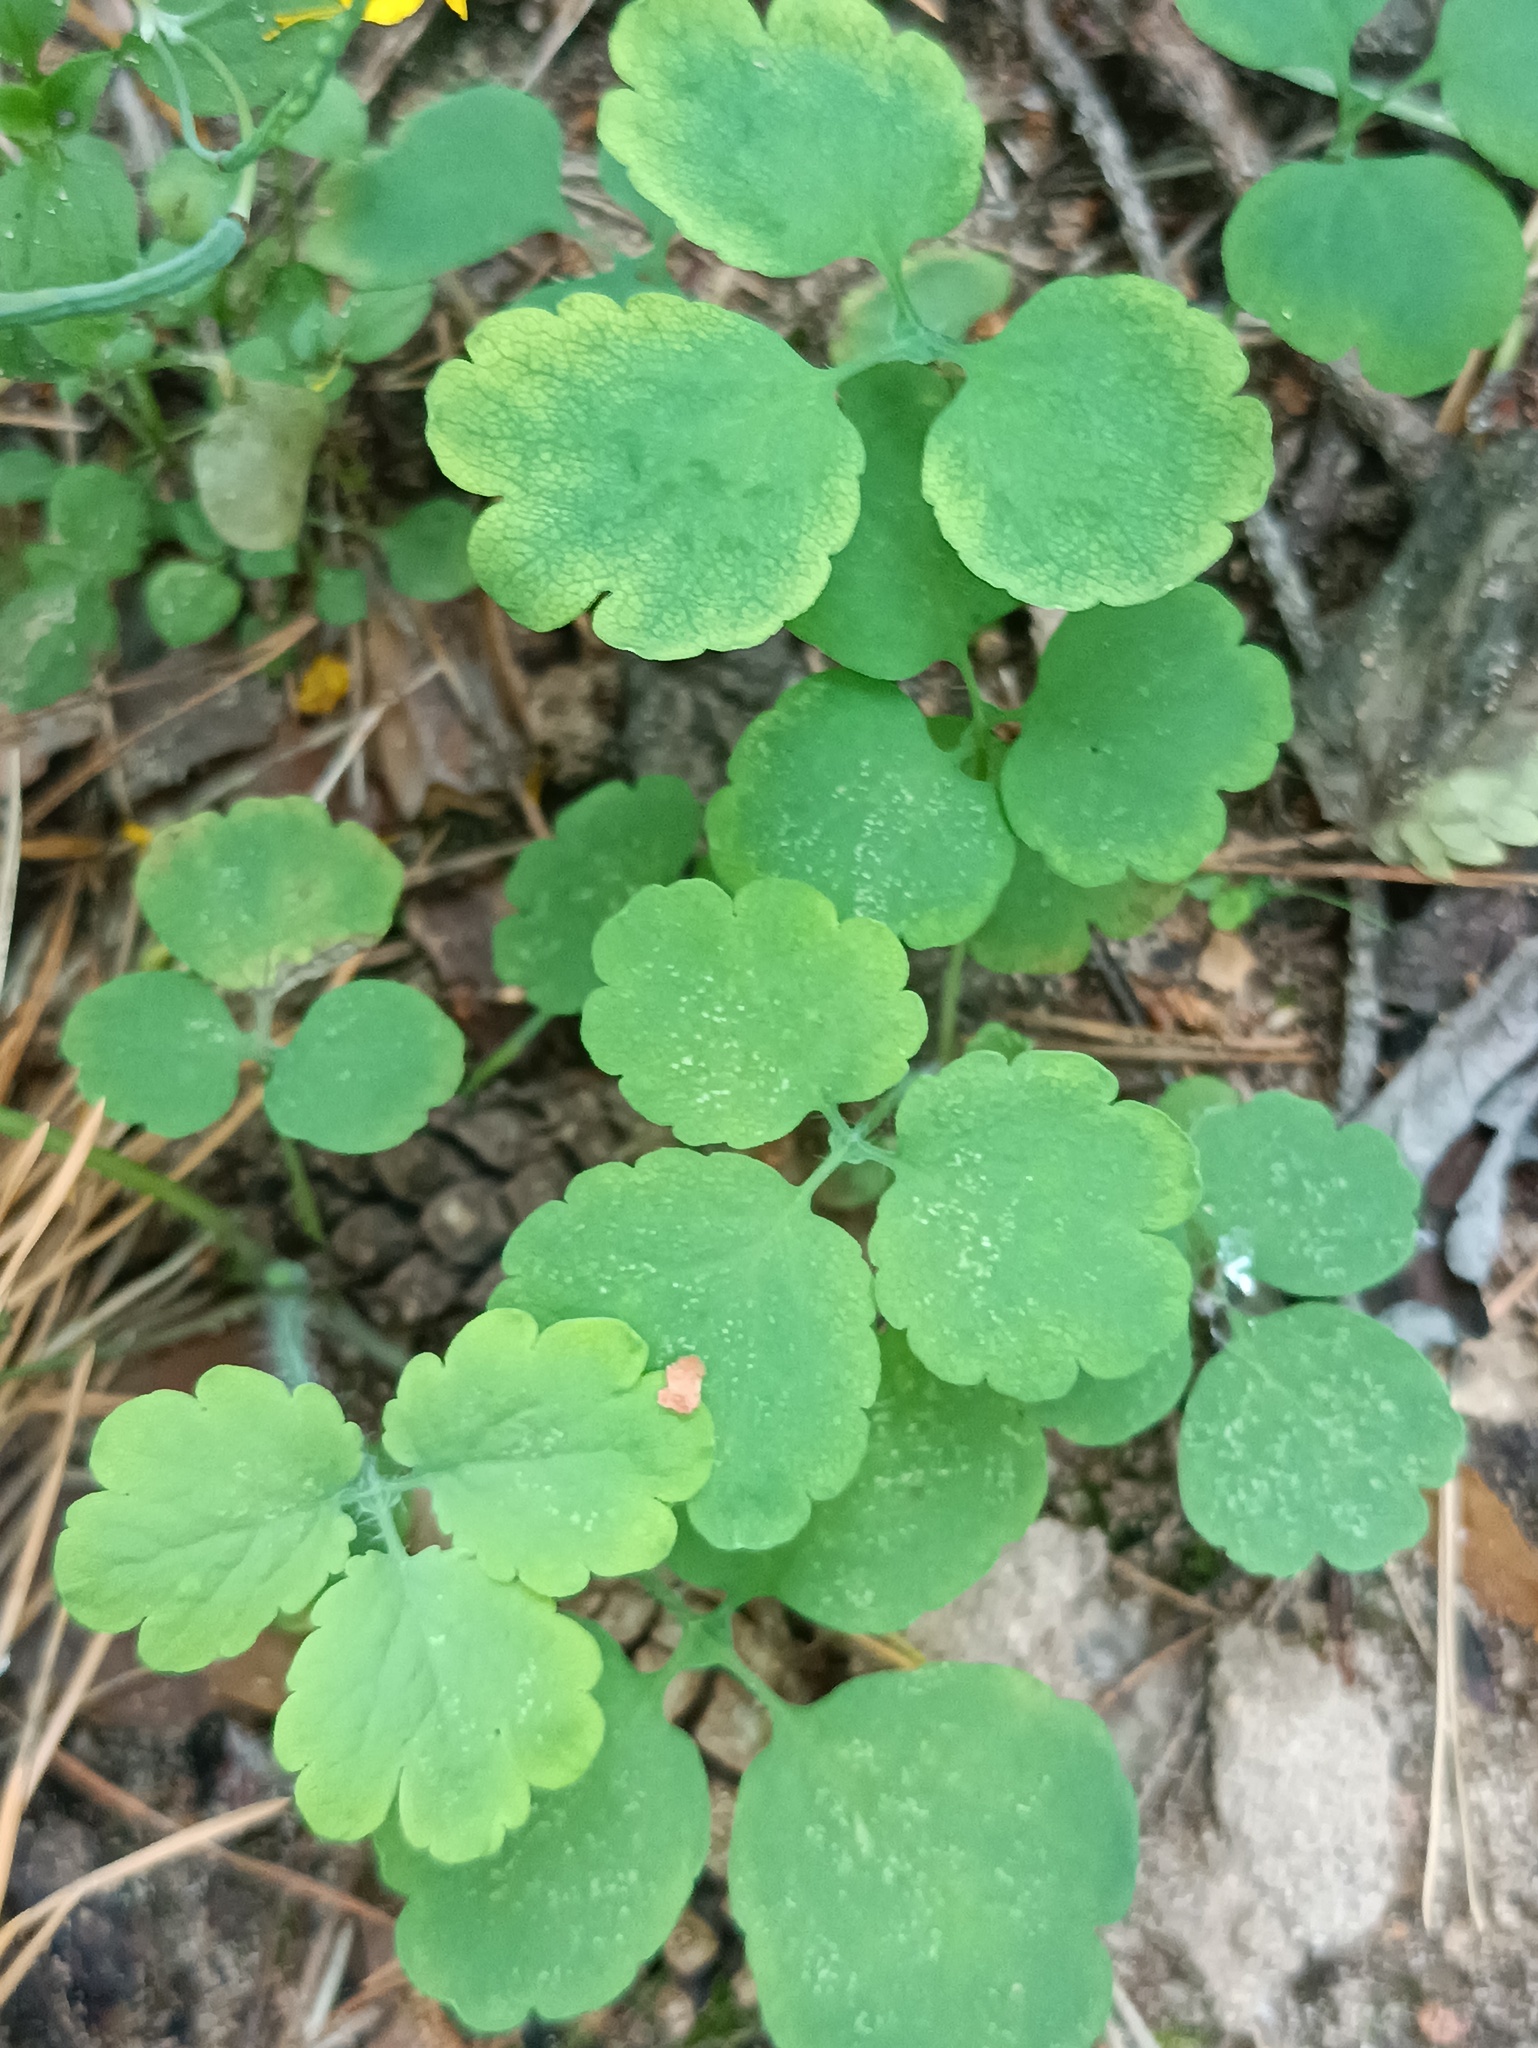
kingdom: Plantae
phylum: Tracheophyta
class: Magnoliopsida
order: Ranunculales
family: Papaveraceae
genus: Chelidonium
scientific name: Chelidonium majus
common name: Greater celandine
